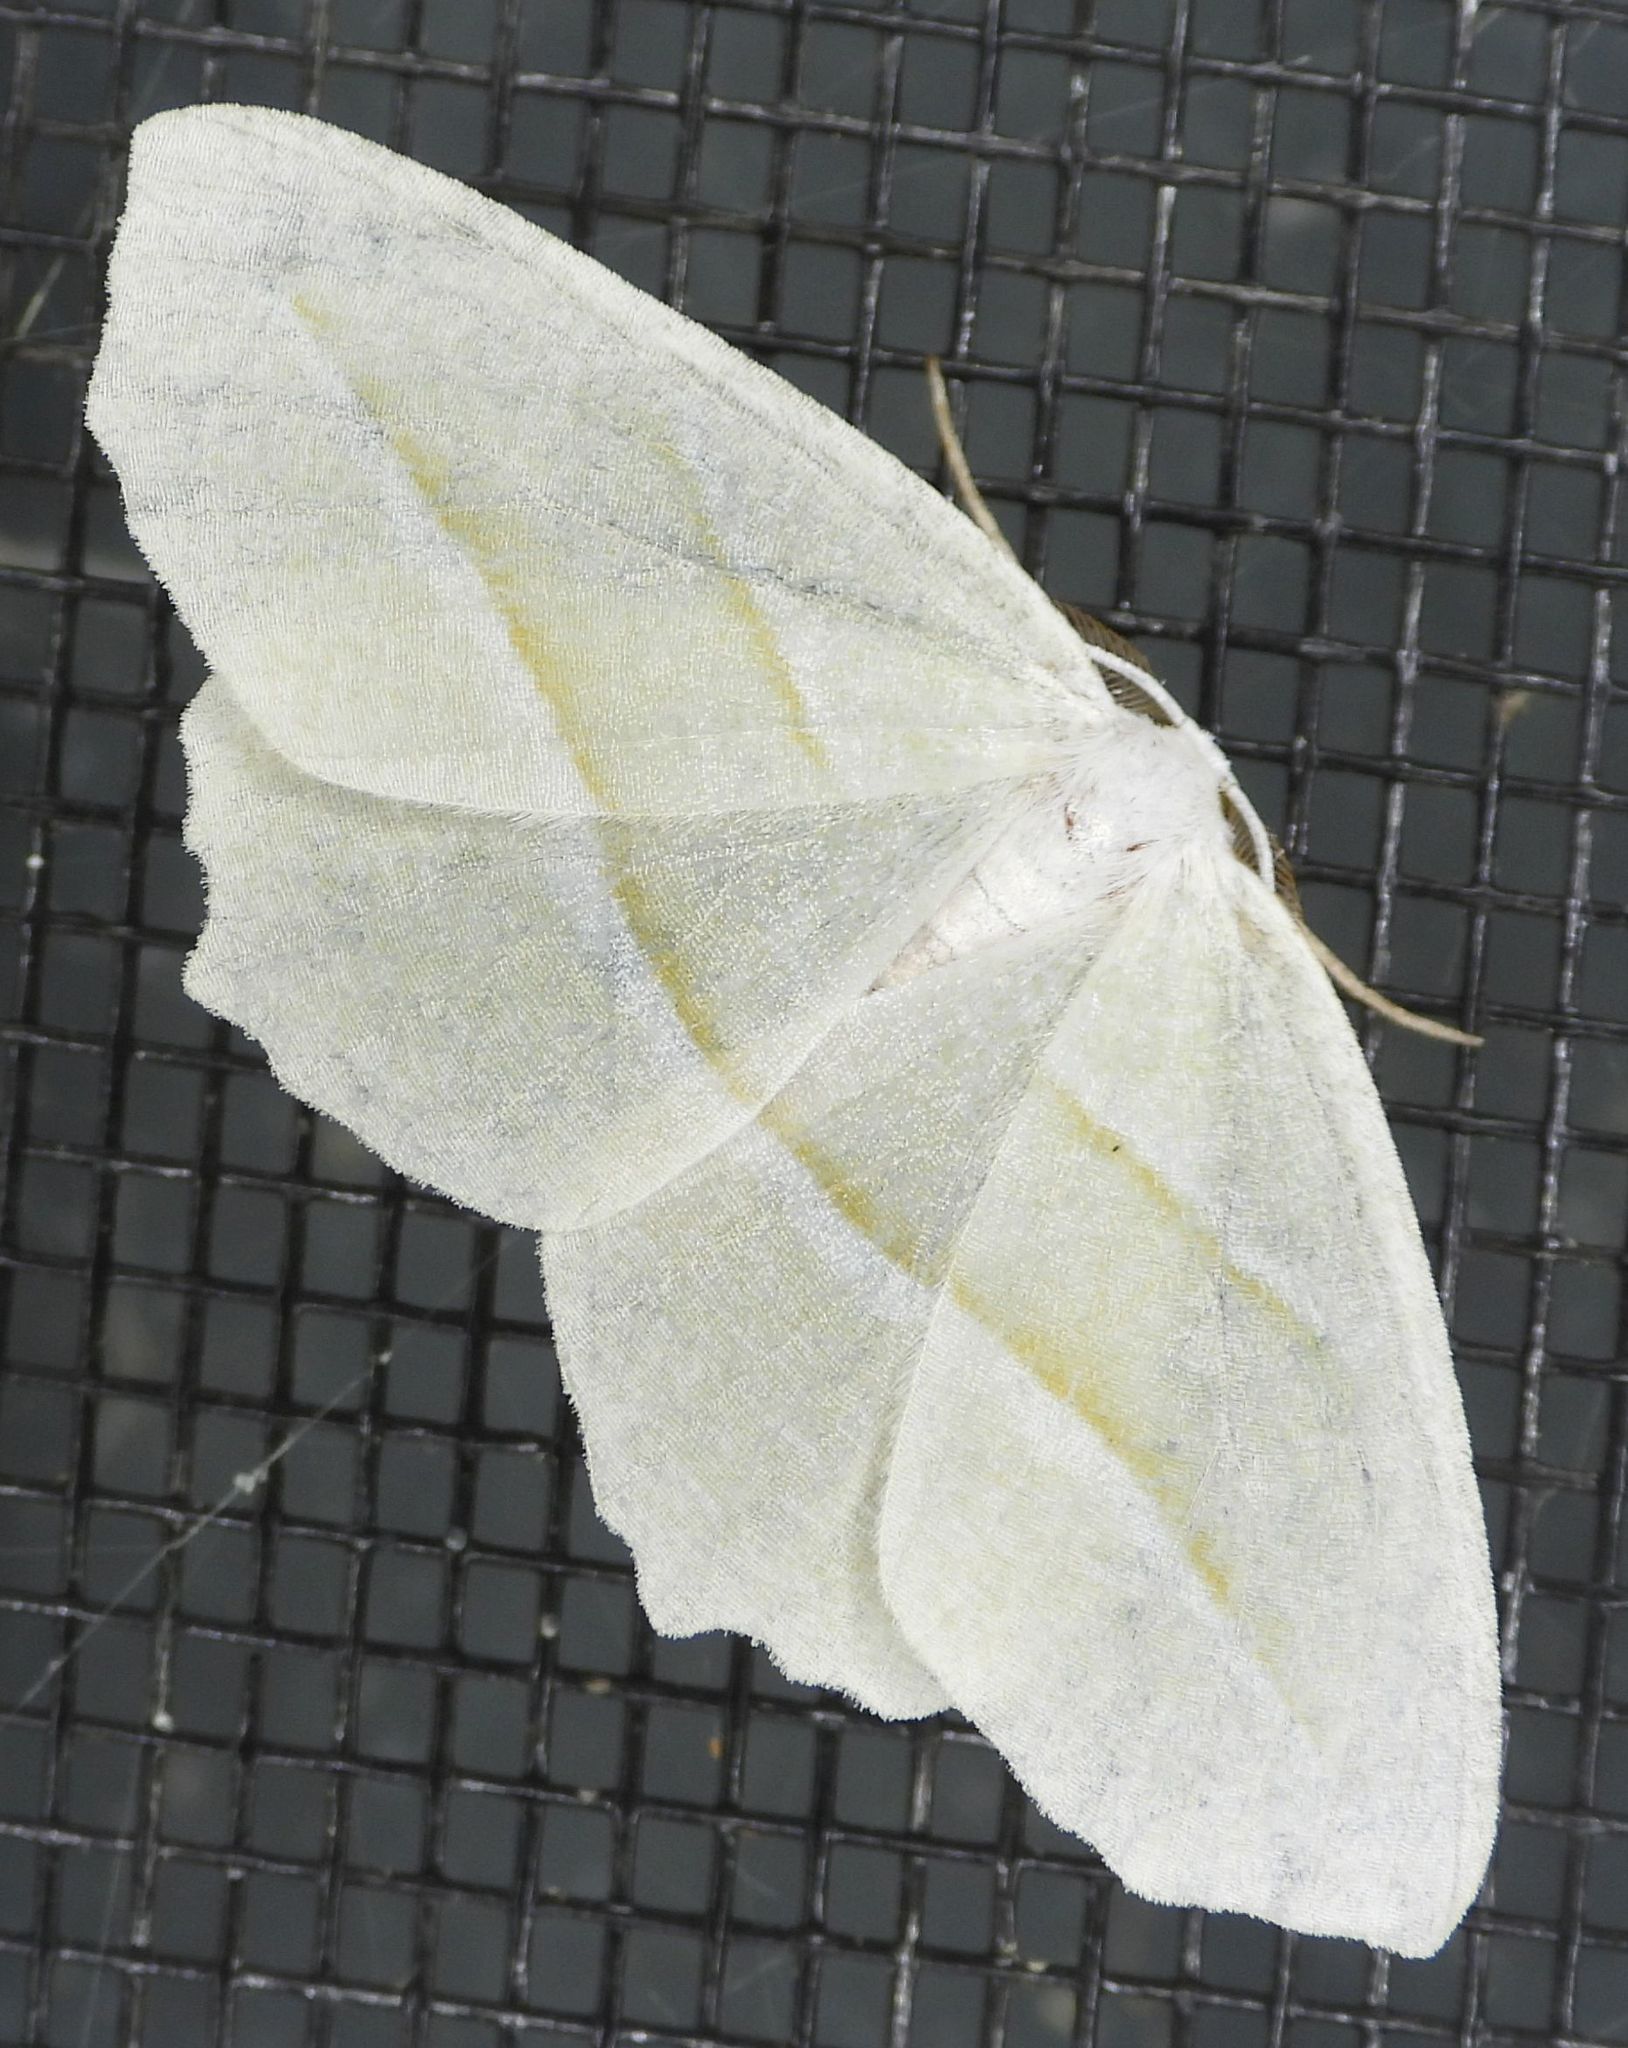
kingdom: Animalia
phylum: Arthropoda
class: Insecta
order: Lepidoptera
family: Geometridae
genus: Campaea
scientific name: Campaea perlata
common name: Fringed looper
